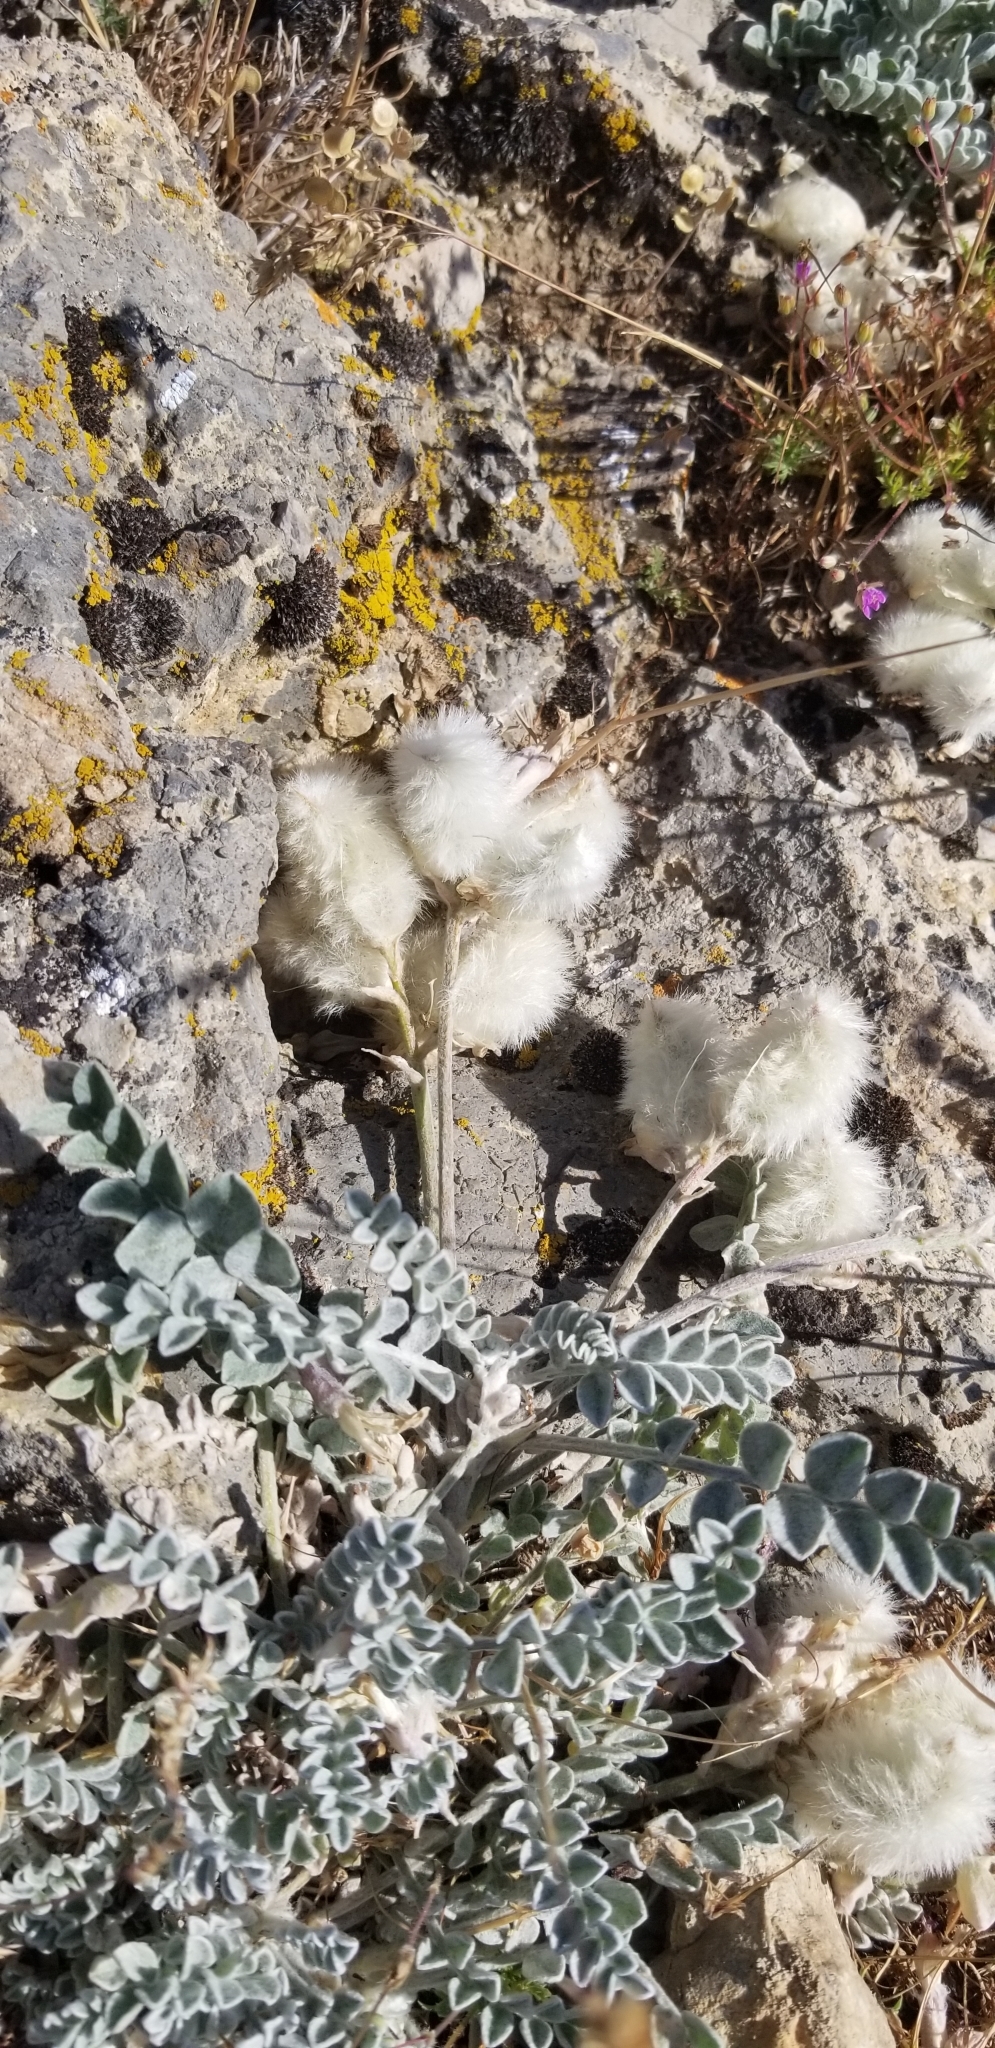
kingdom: Plantae
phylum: Tracheophyta
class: Magnoliopsida
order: Fabales
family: Fabaceae
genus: Astragalus
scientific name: Astragalus utahensis
